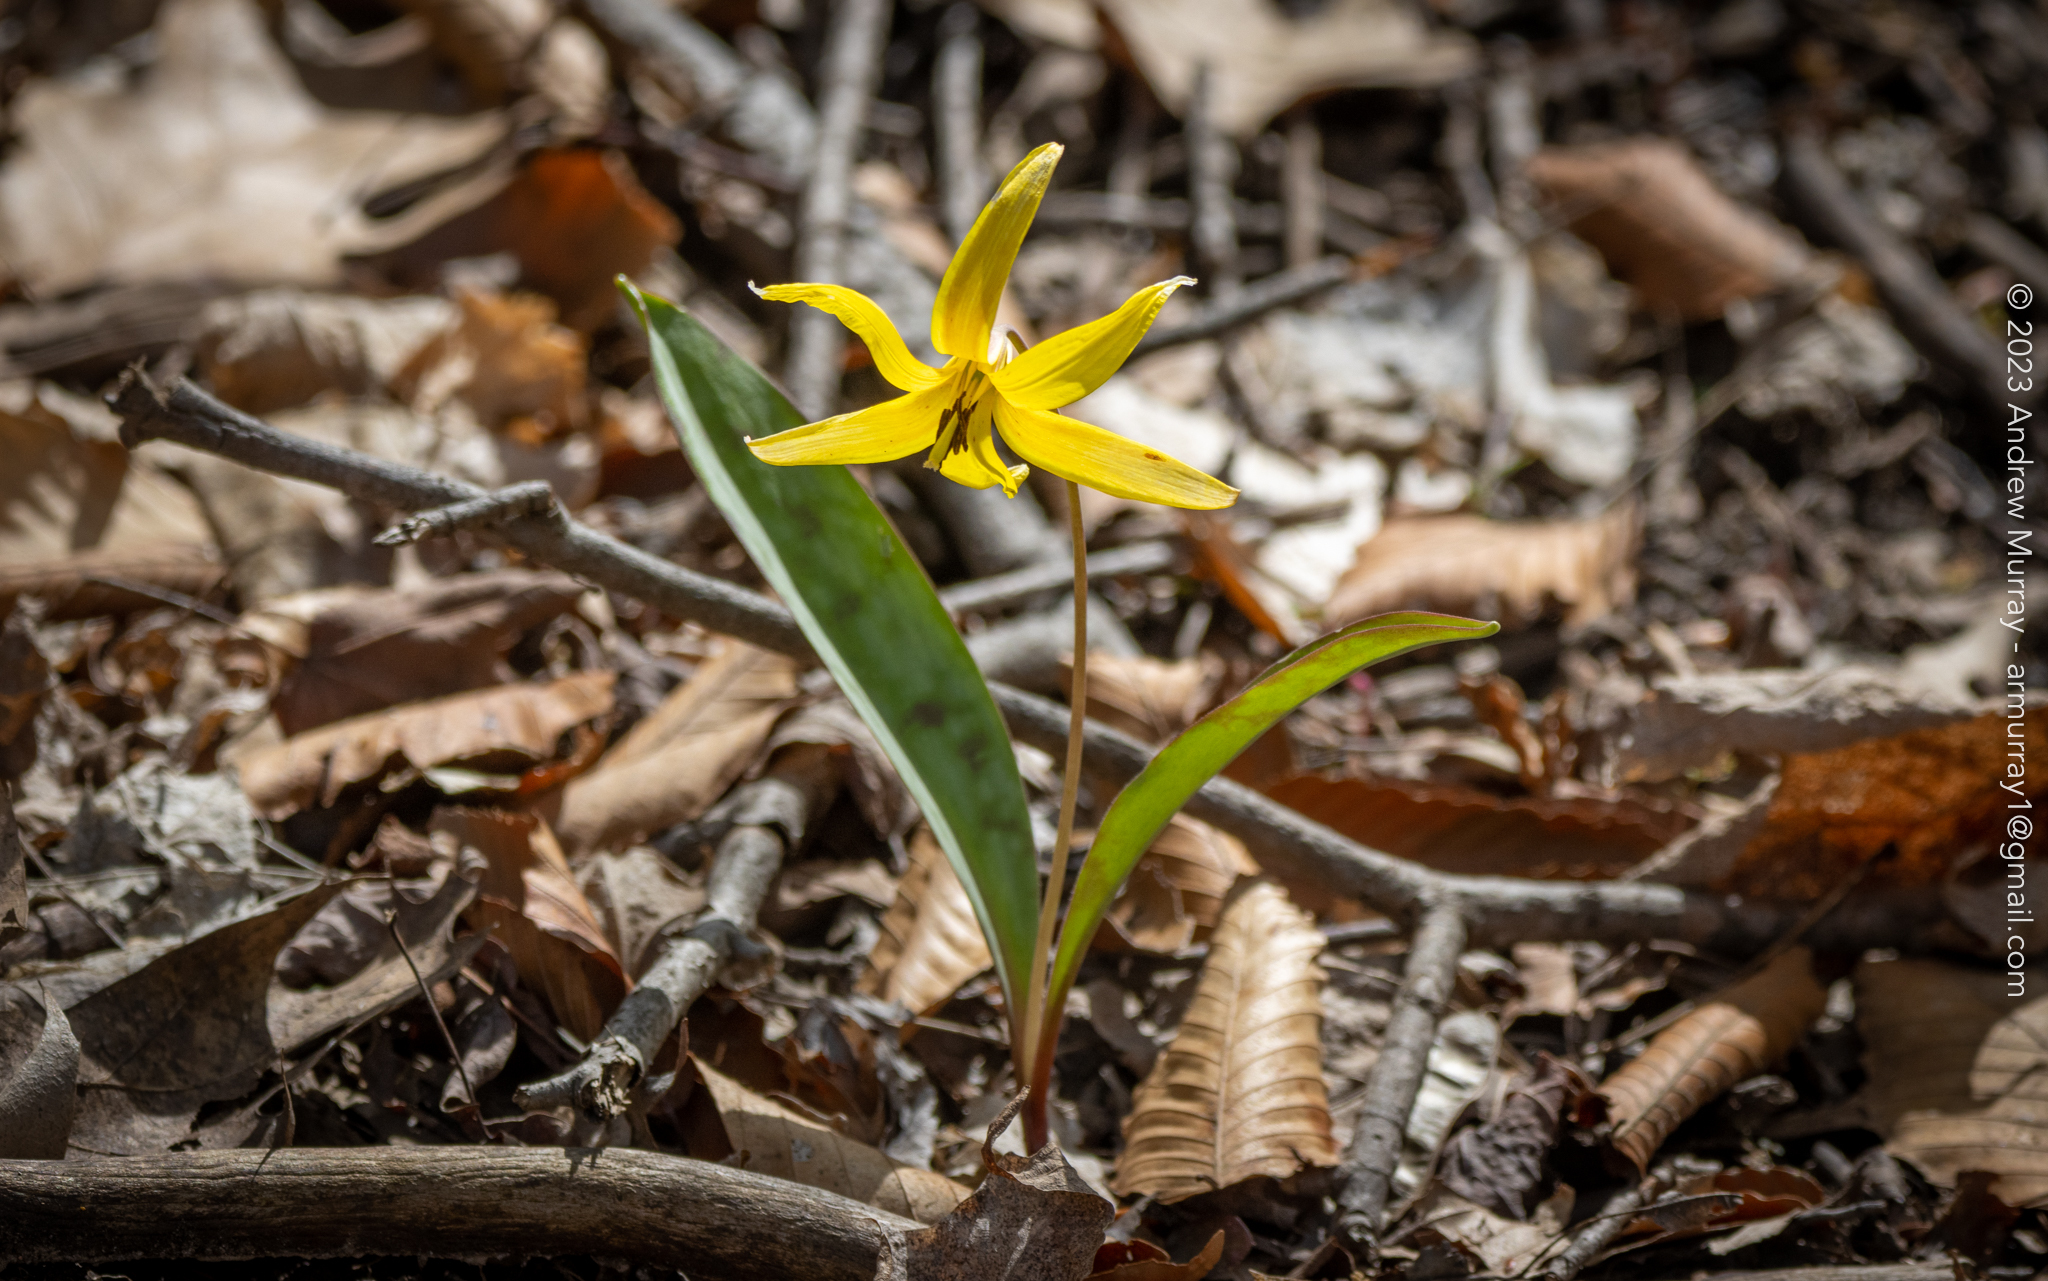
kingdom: Plantae
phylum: Tracheophyta
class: Liliopsida
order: Liliales
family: Liliaceae
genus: Erythronium
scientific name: Erythronium americanum
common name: Yellow adder's-tongue
